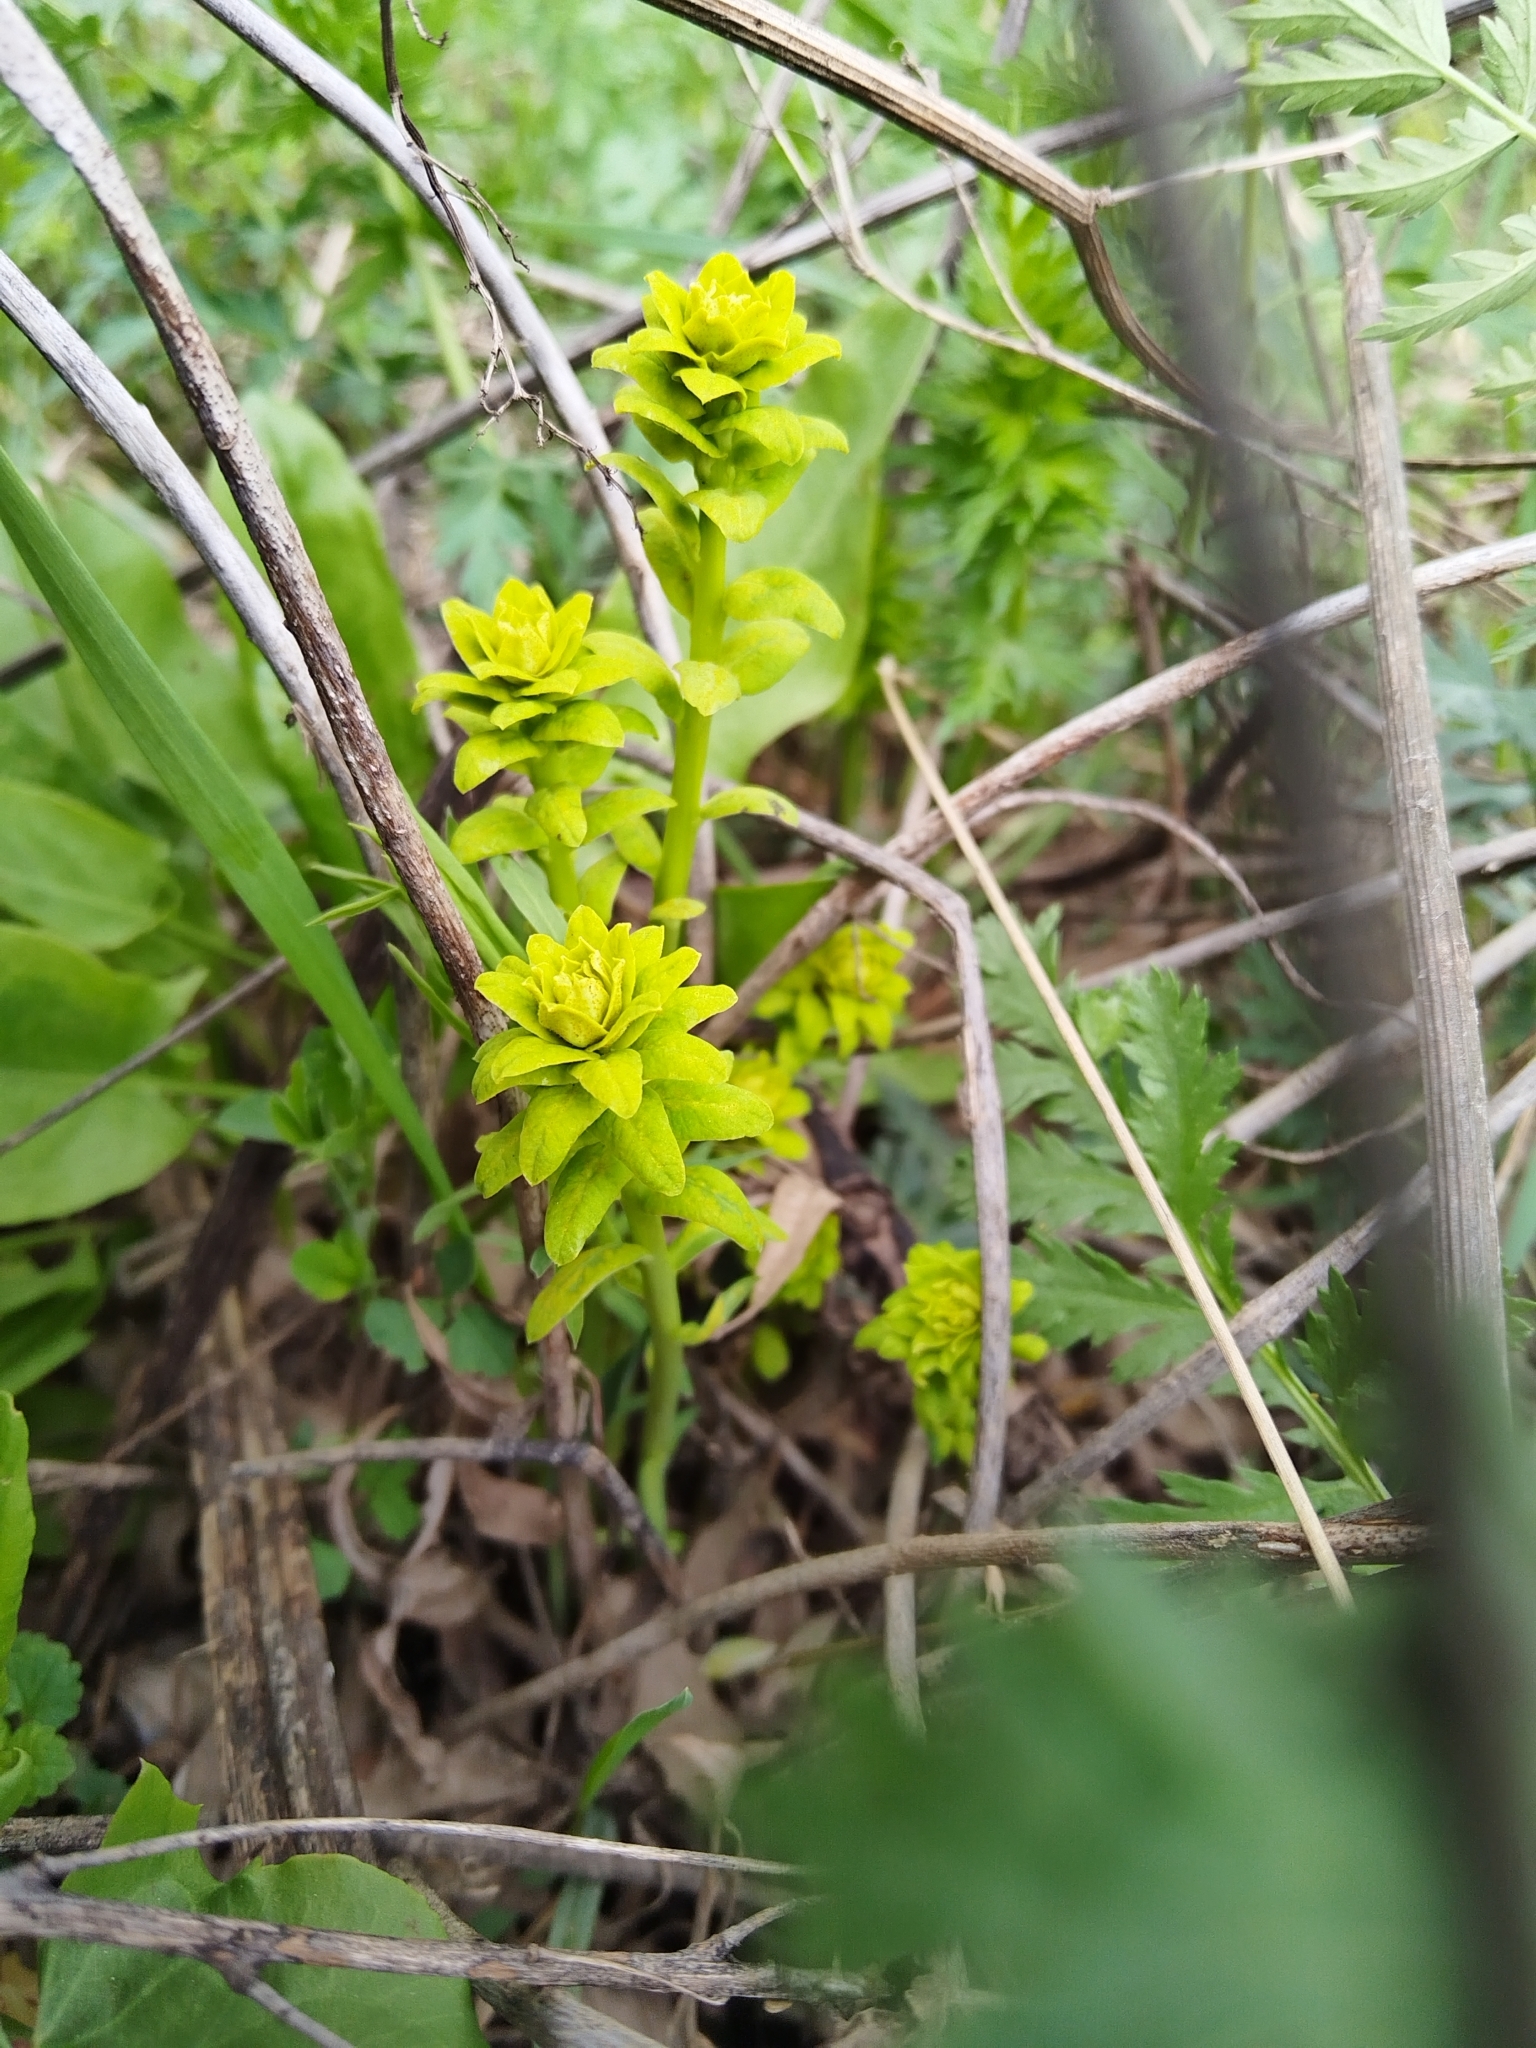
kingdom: Plantae
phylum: Tracheophyta
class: Magnoliopsida
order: Malpighiales
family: Euphorbiaceae
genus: Euphorbia
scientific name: Euphorbia virgata
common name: Leafy spurge
